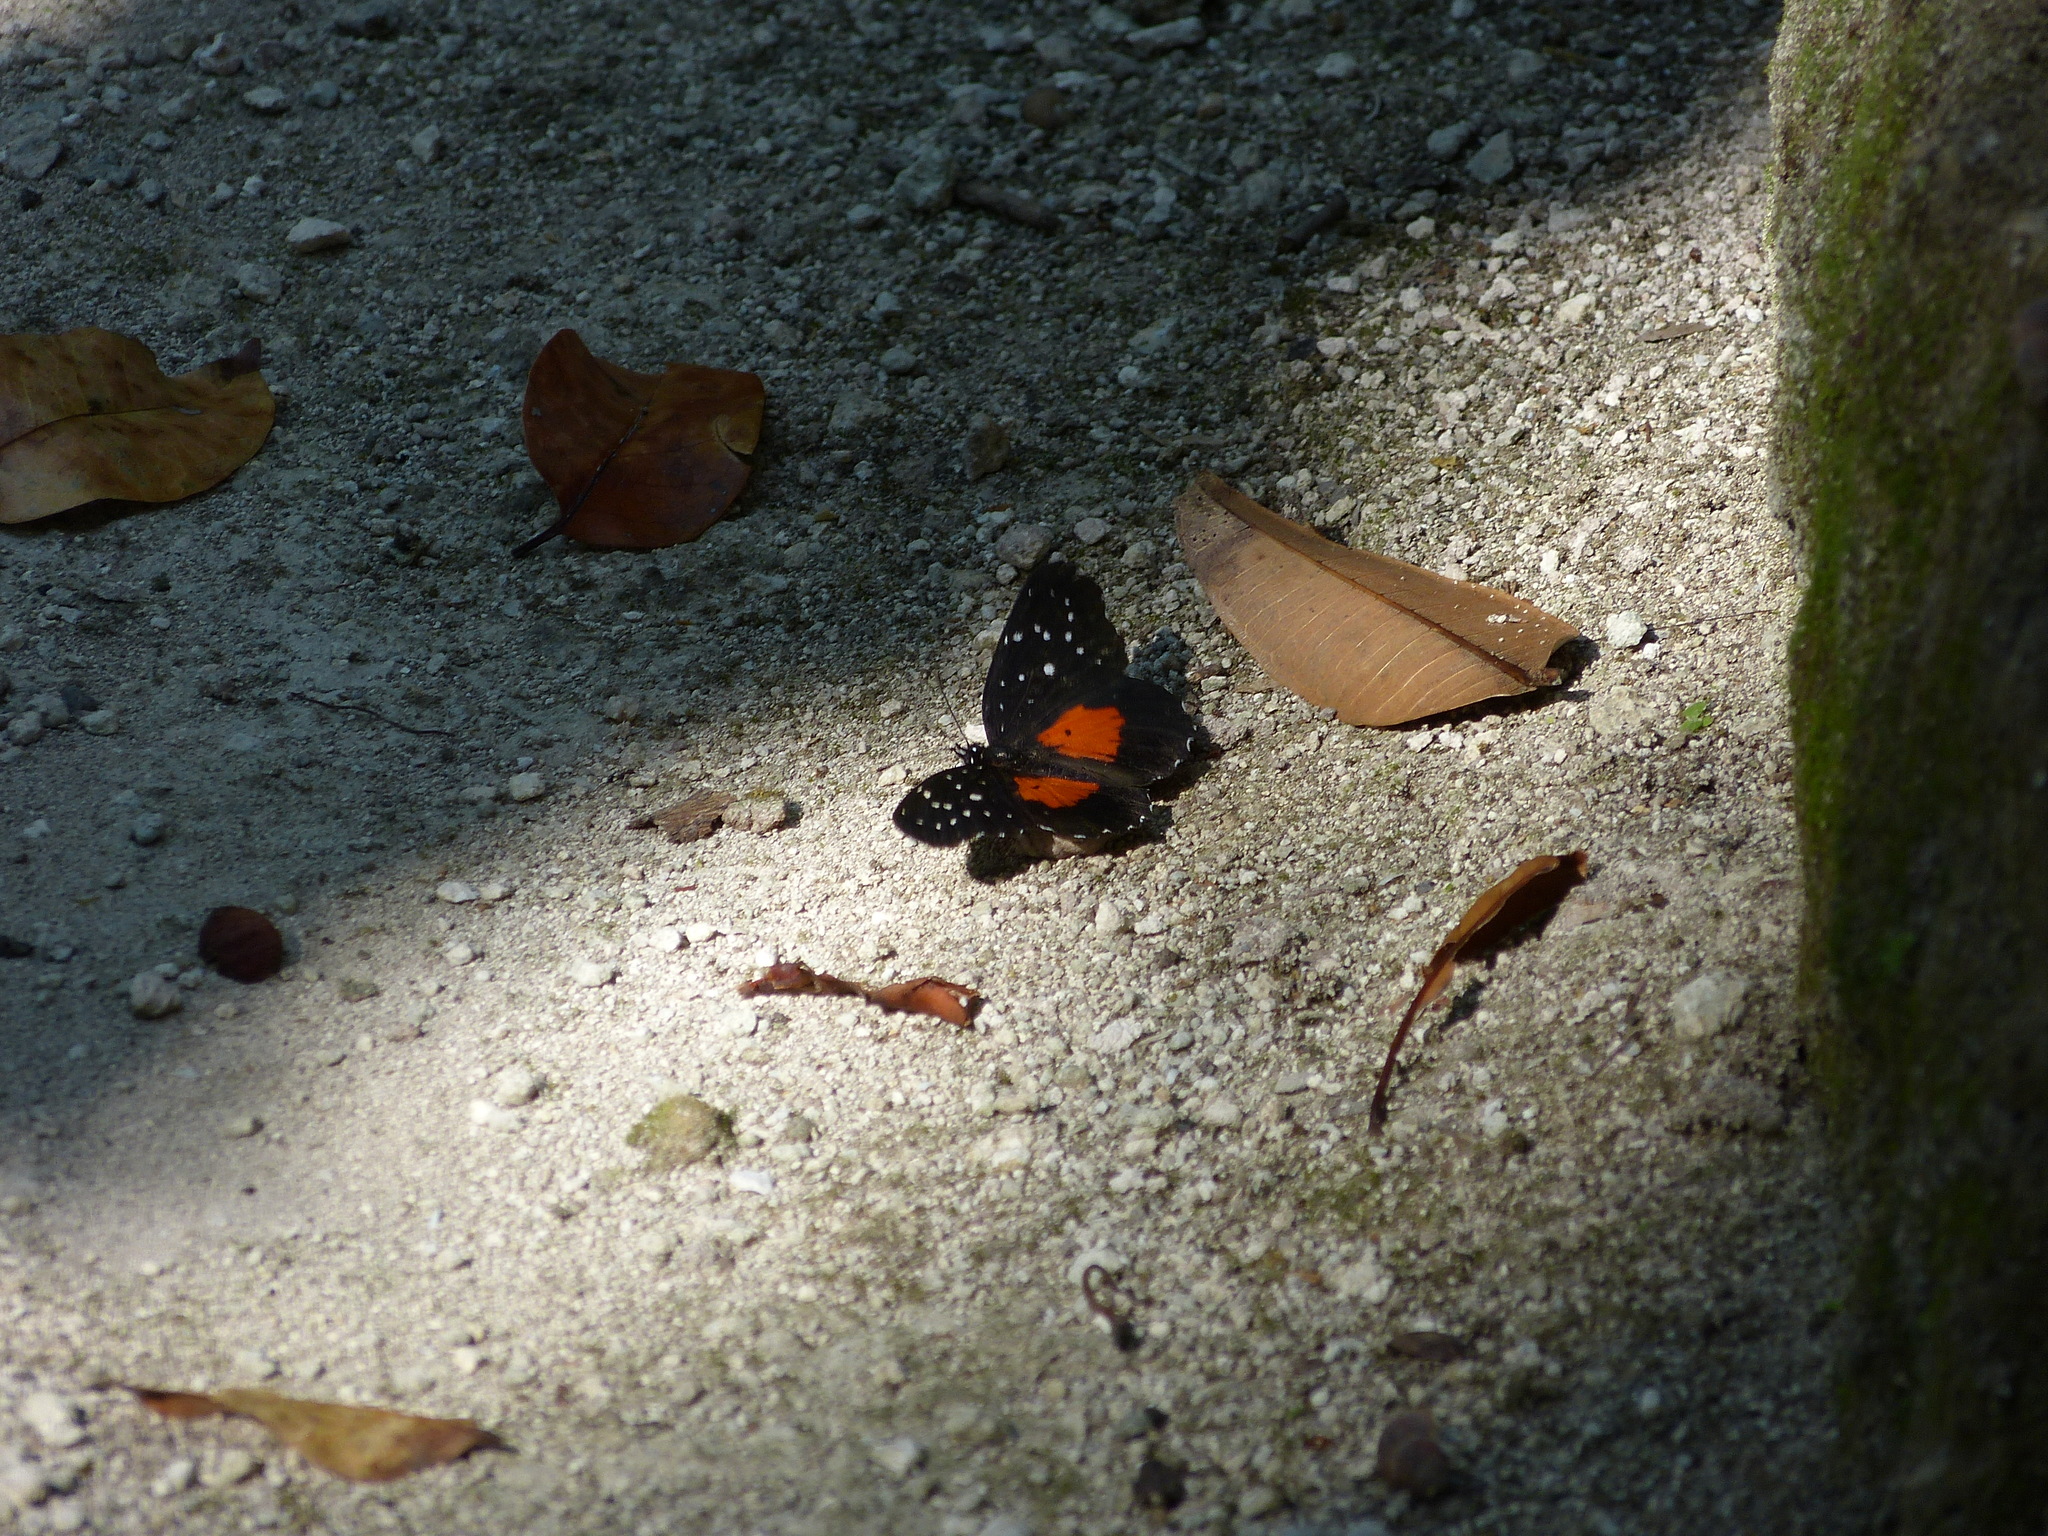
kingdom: Animalia
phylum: Arthropoda
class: Insecta
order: Lepidoptera
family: Nymphalidae
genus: Chlosyne
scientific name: Chlosyne janais
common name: Crimson patch
